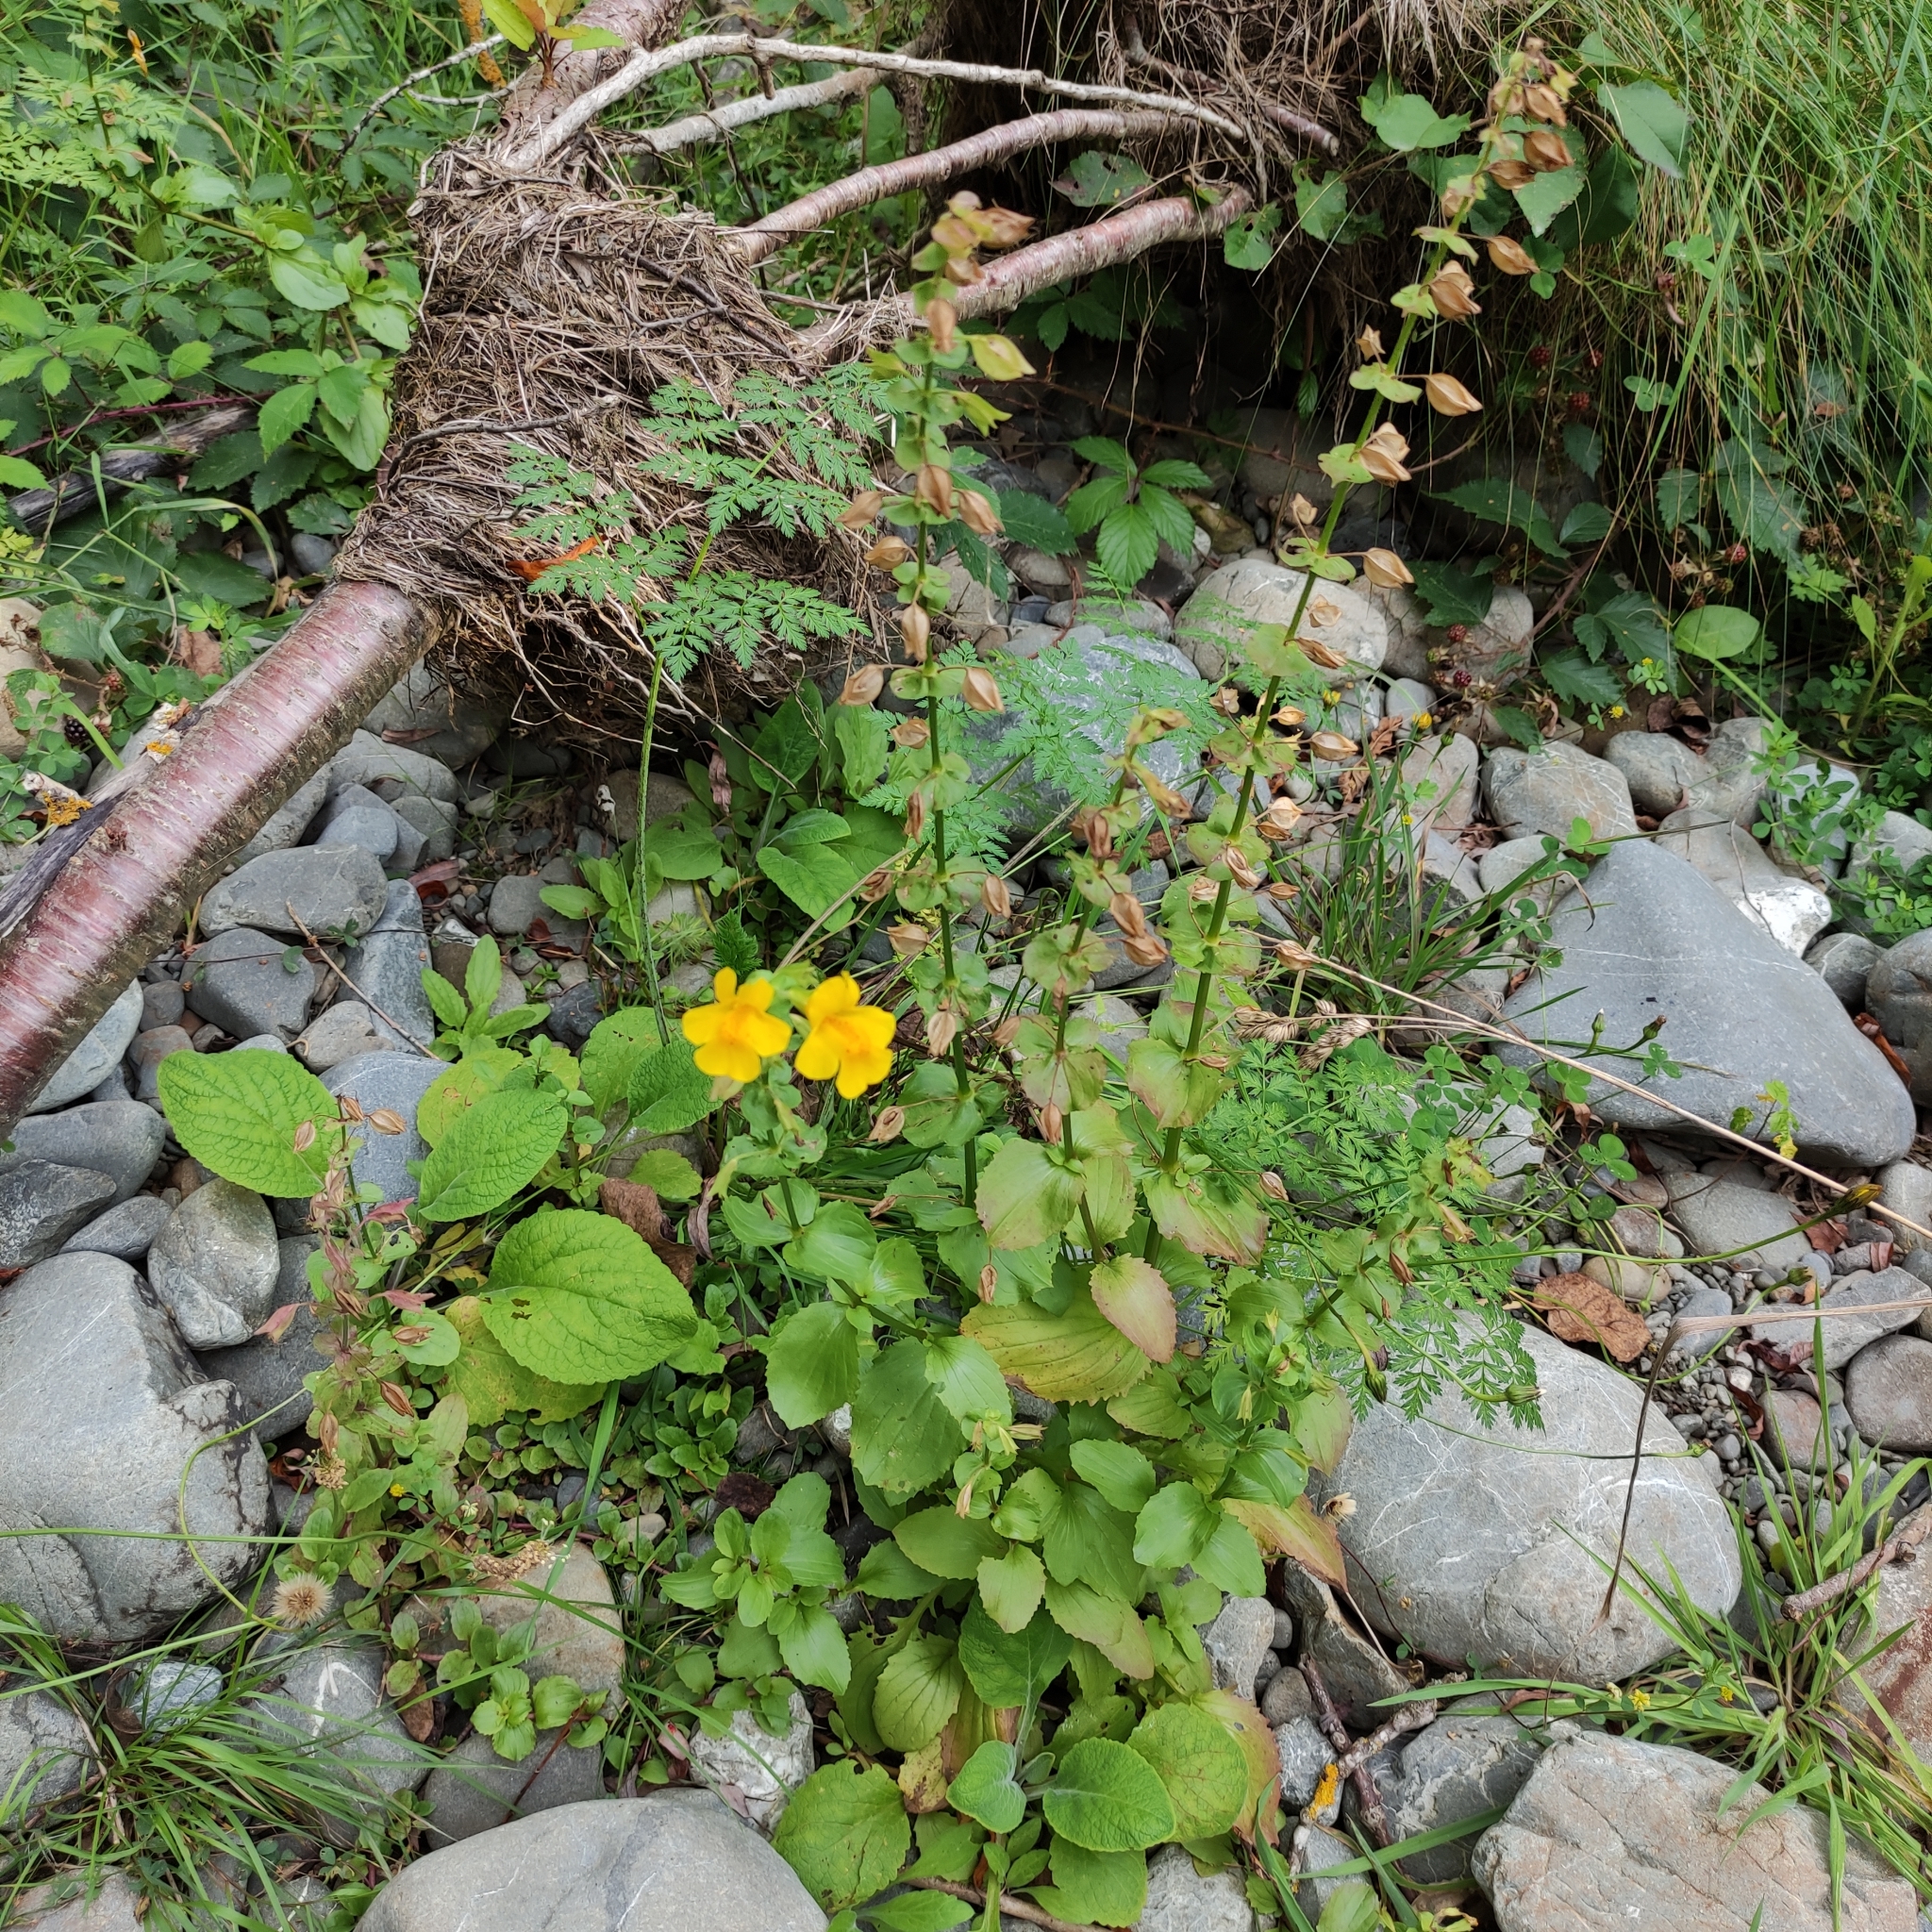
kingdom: Plantae
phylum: Tracheophyta
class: Magnoliopsida
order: Lamiales
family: Phrymaceae
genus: Erythranthe
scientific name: Erythranthe guttata
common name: Monkeyflower
